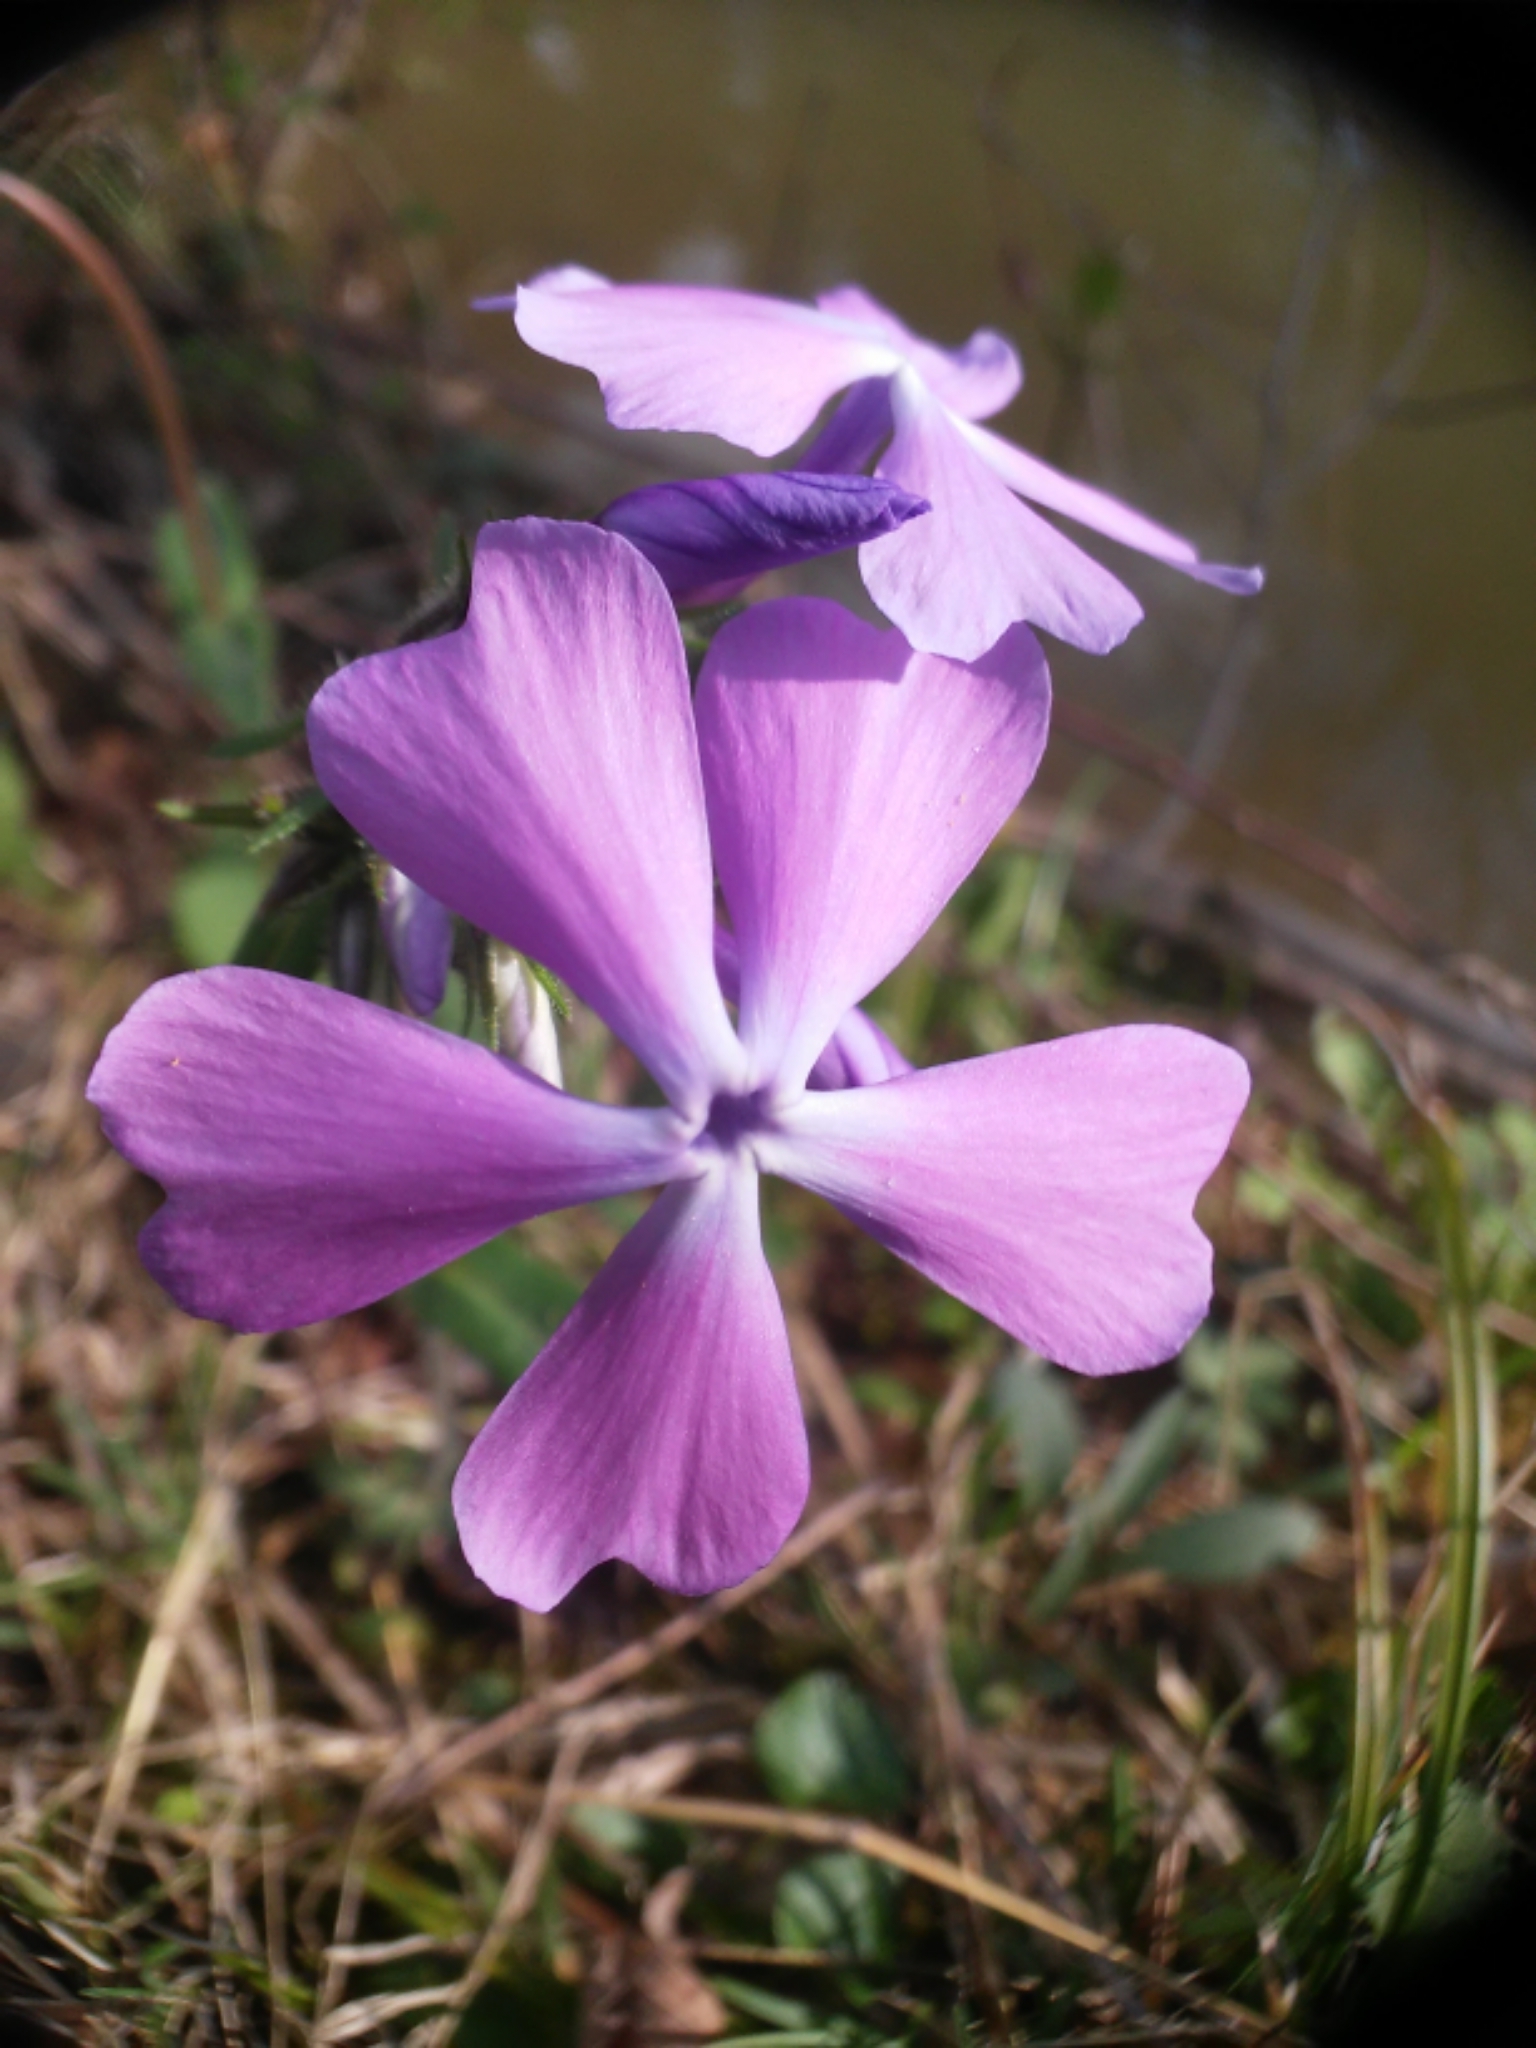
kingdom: Plantae
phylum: Tracheophyta
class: Magnoliopsida
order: Ericales
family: Polemoniaceae
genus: Phlox
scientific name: Phlox divaricata
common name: Blue phlox
